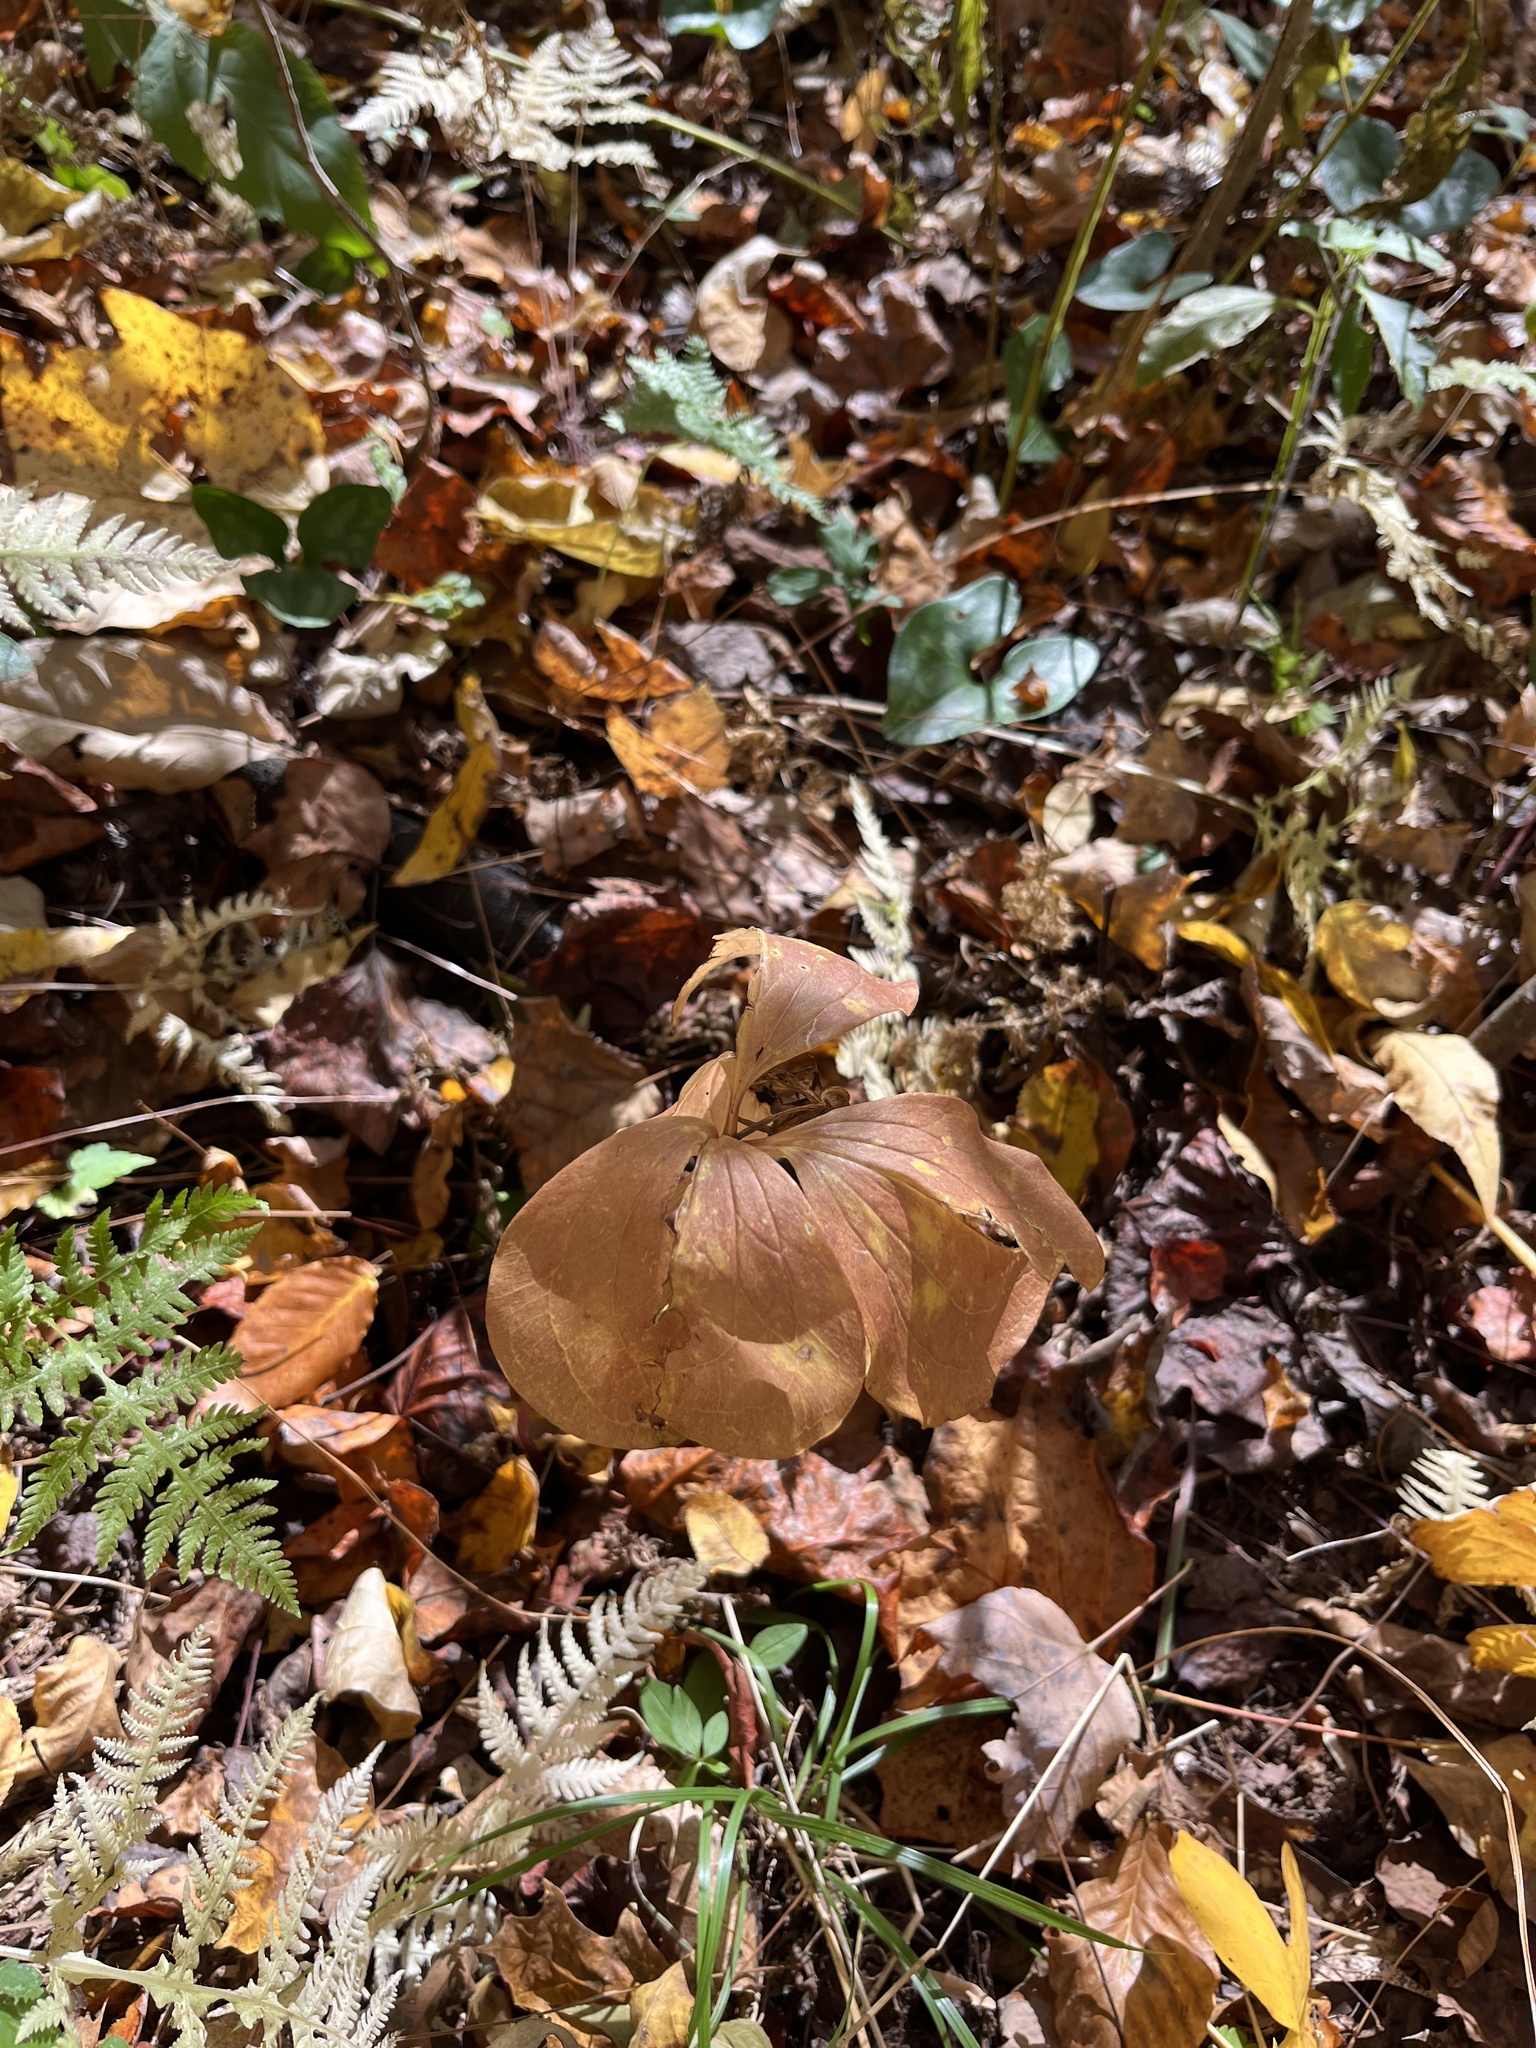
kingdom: Plantae
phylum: Tracheophyta
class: Liliopsida
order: Liliales
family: Melanthiaceae
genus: Trillium
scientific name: Trillium catesbaei
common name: Bashful trillium
